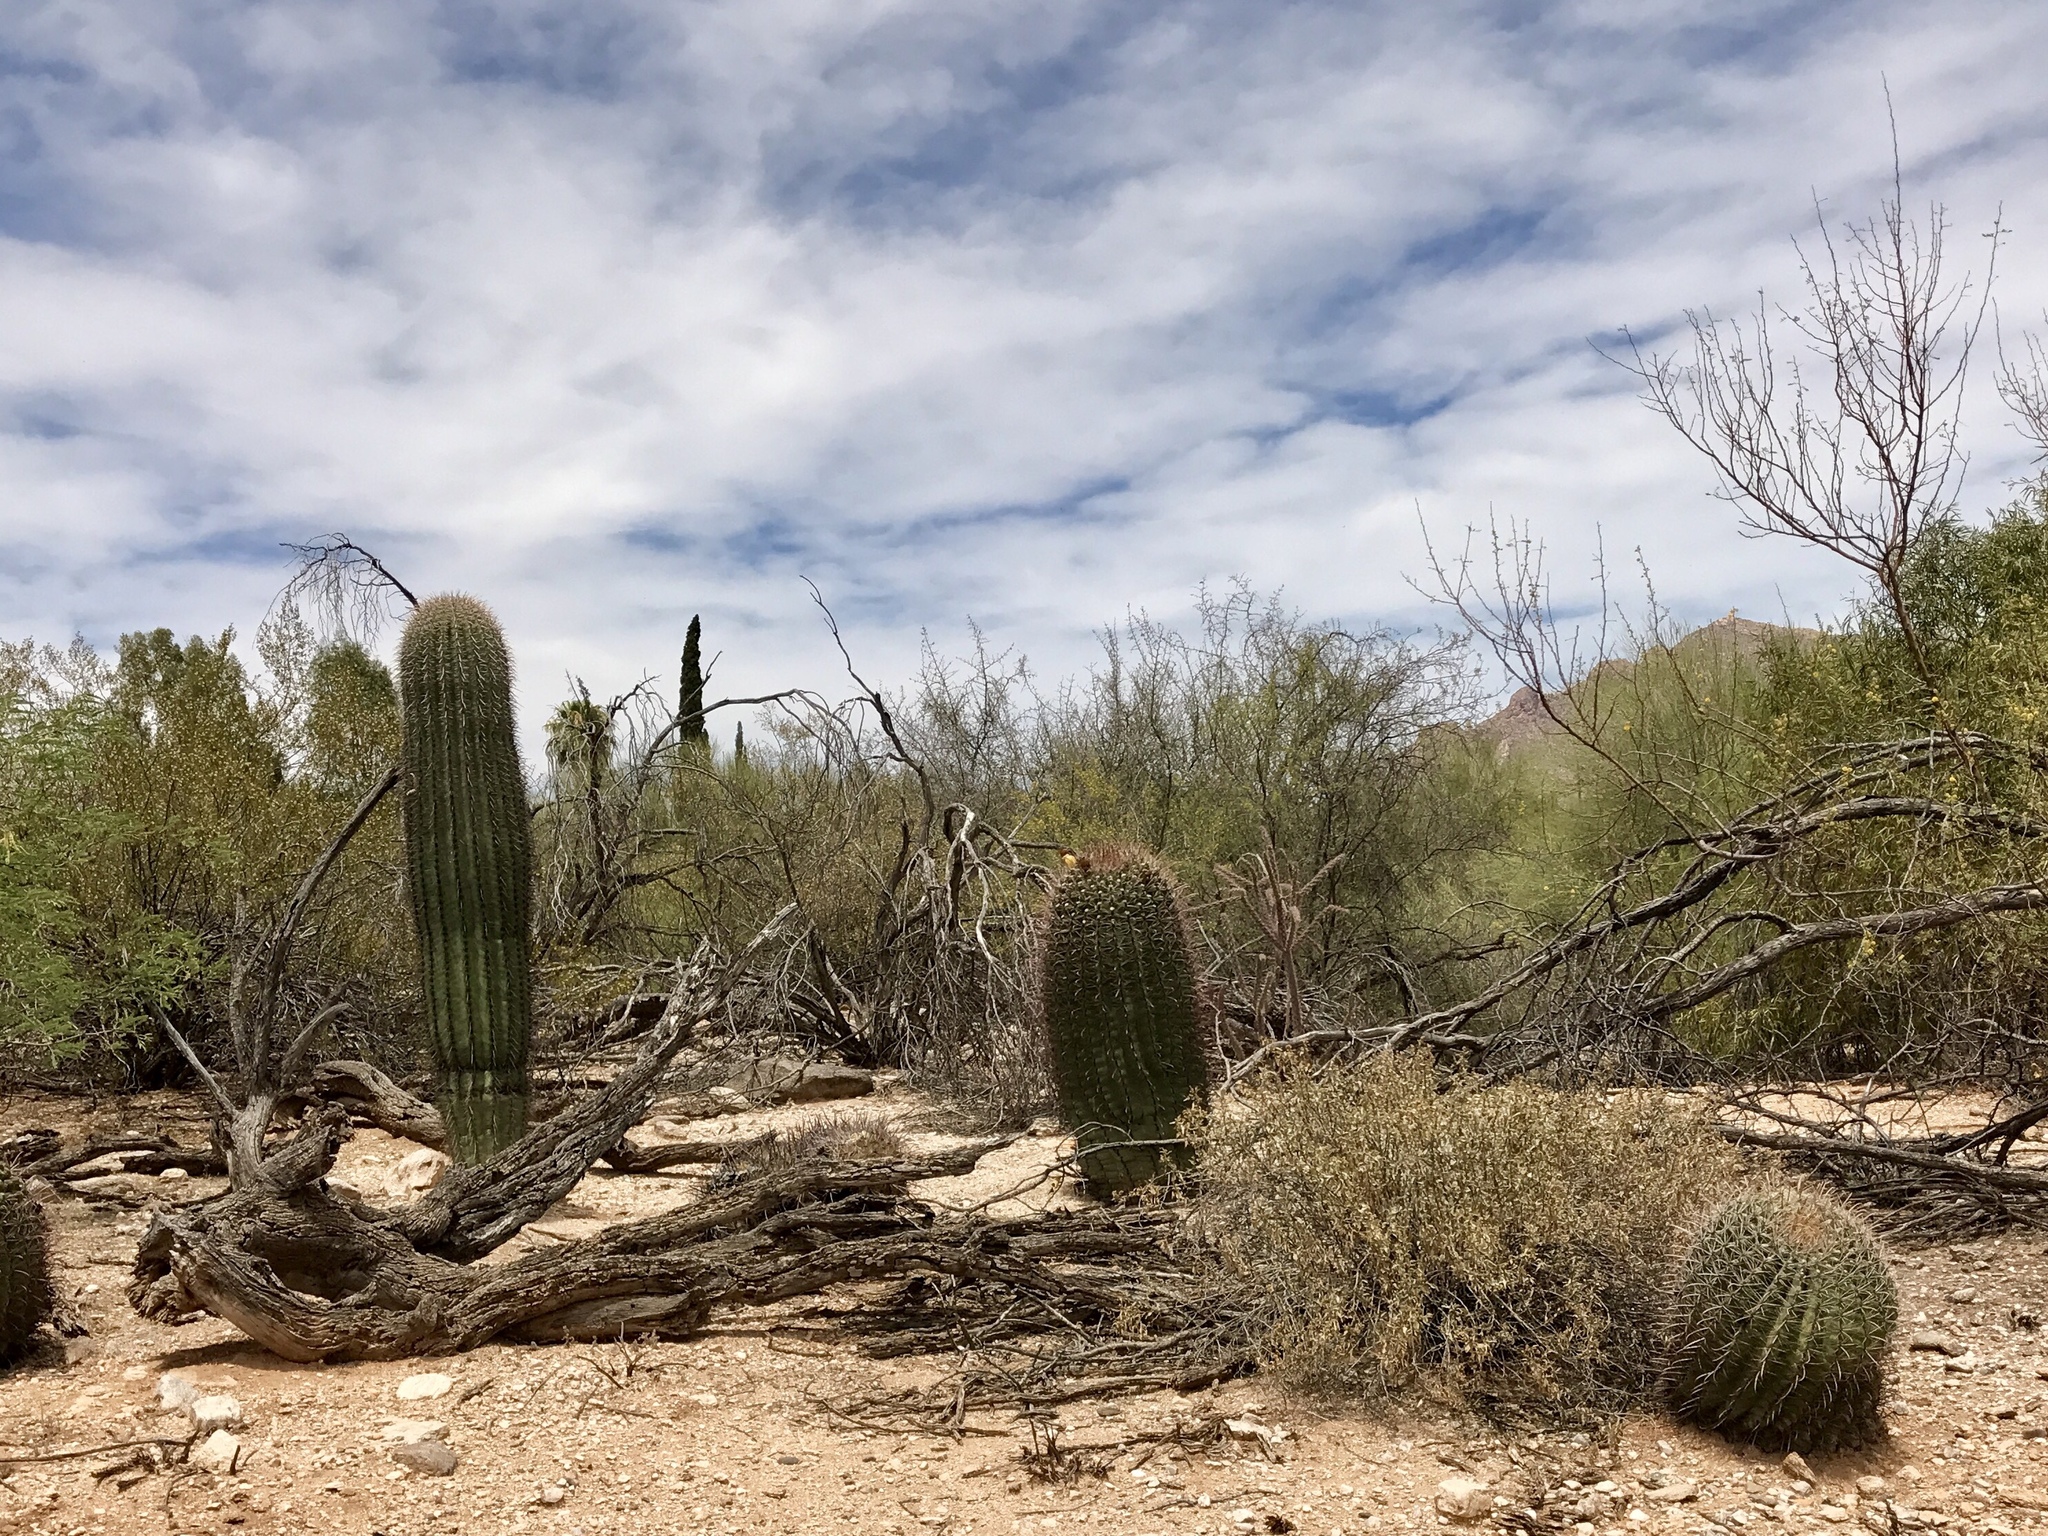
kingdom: Plantae
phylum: Tracheophyta
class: Magnoliopsida
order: Caryophyllales
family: Cactaceae
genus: Ferocactus
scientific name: Ferocactus wislizeni
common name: Candy barrel cactus
